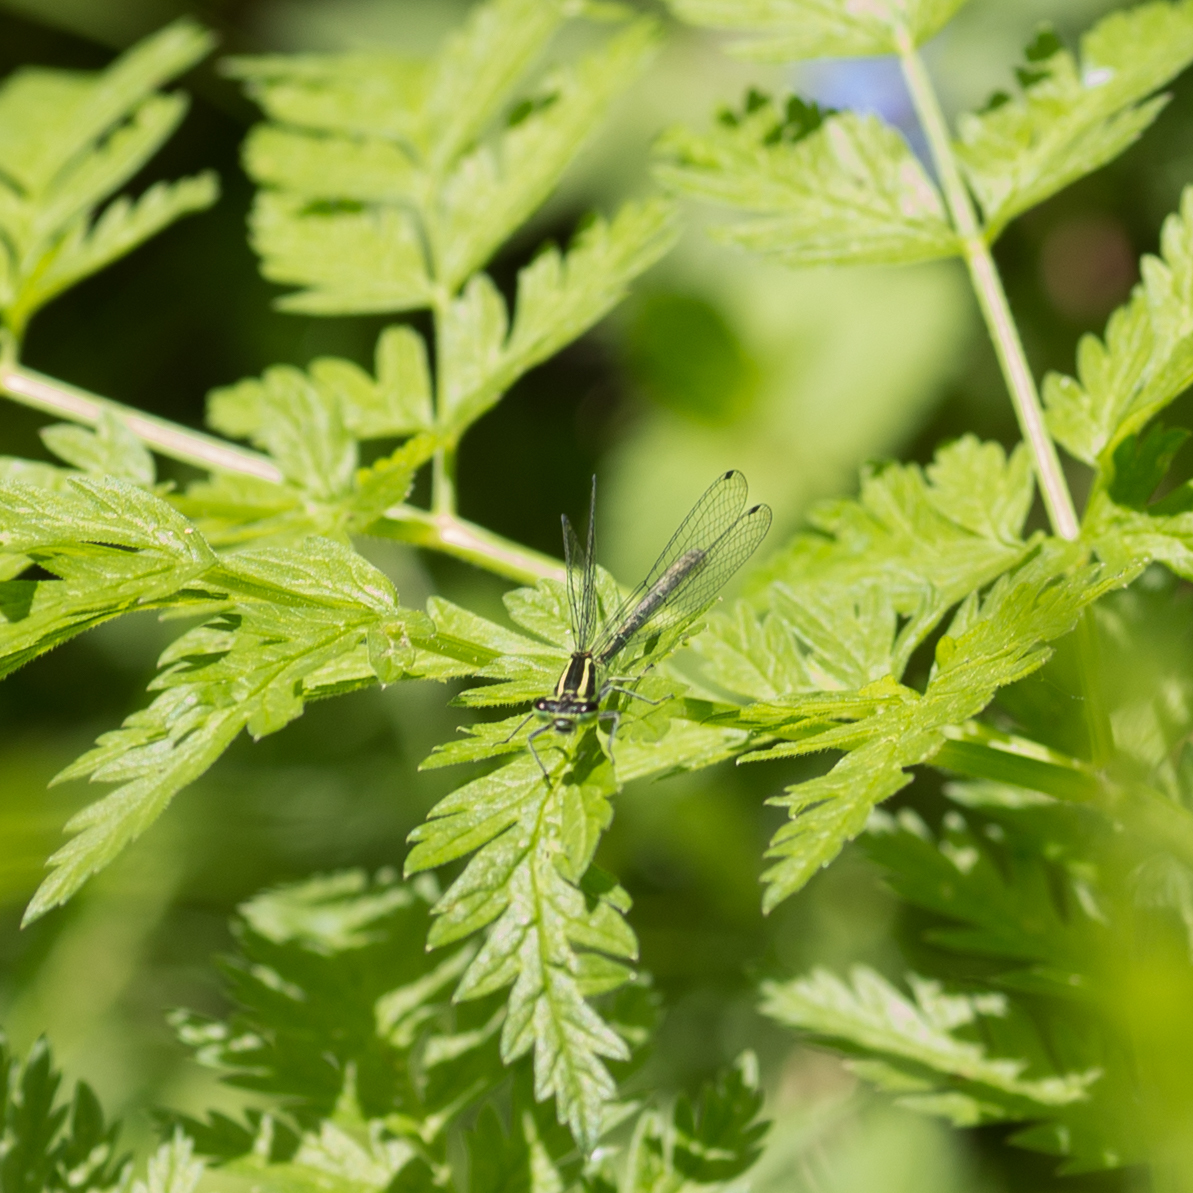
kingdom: Animalia
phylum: Arthropoda
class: Insecta
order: Odonata
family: Coenagrionidae
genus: Coenagrion
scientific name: Coenagrion puella
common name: Azure damselfly
